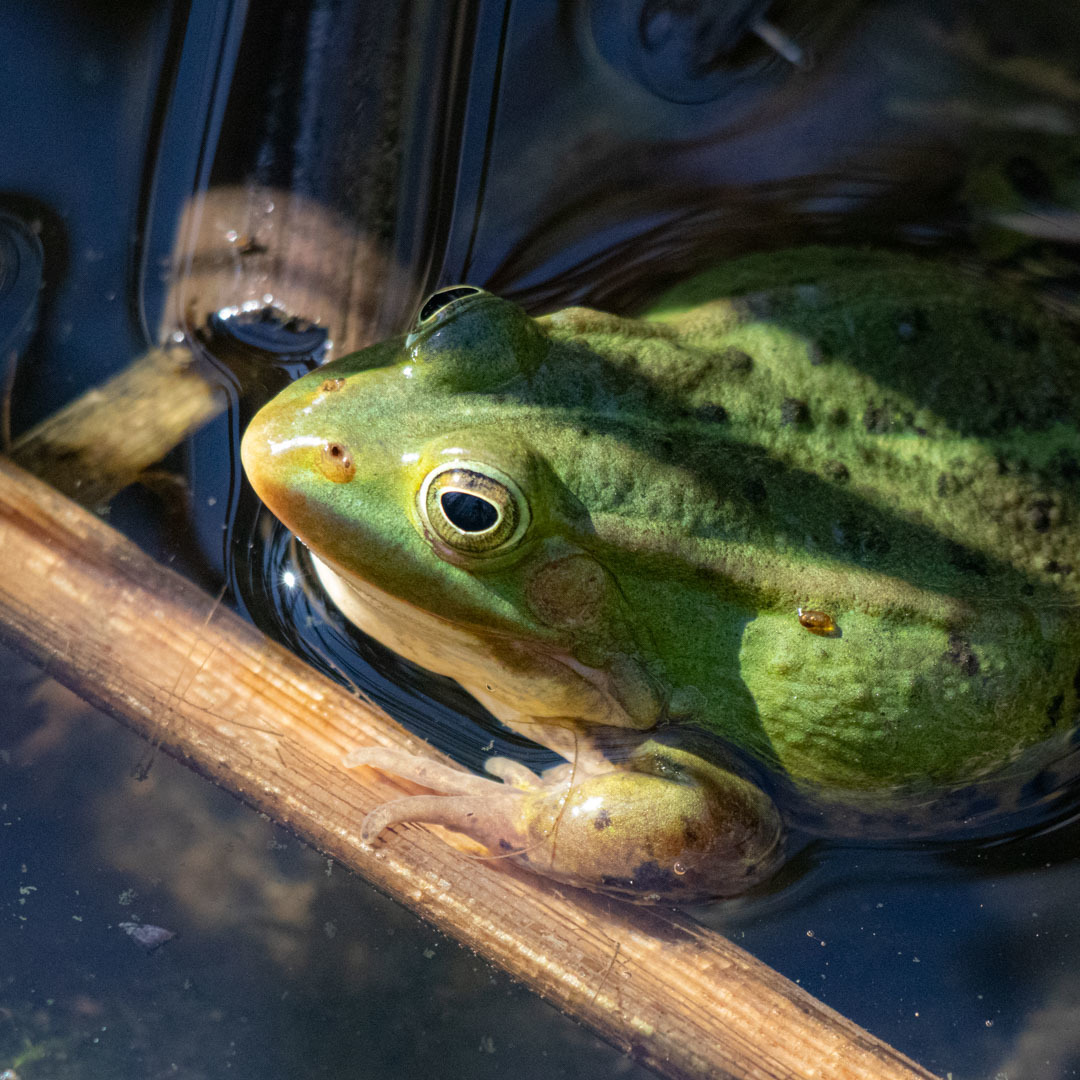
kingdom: Animalia
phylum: Chordata
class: Amphibia
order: Anura
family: Ranidae
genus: Pelophylax
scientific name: Pelophylax lessonae
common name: Pool frog
